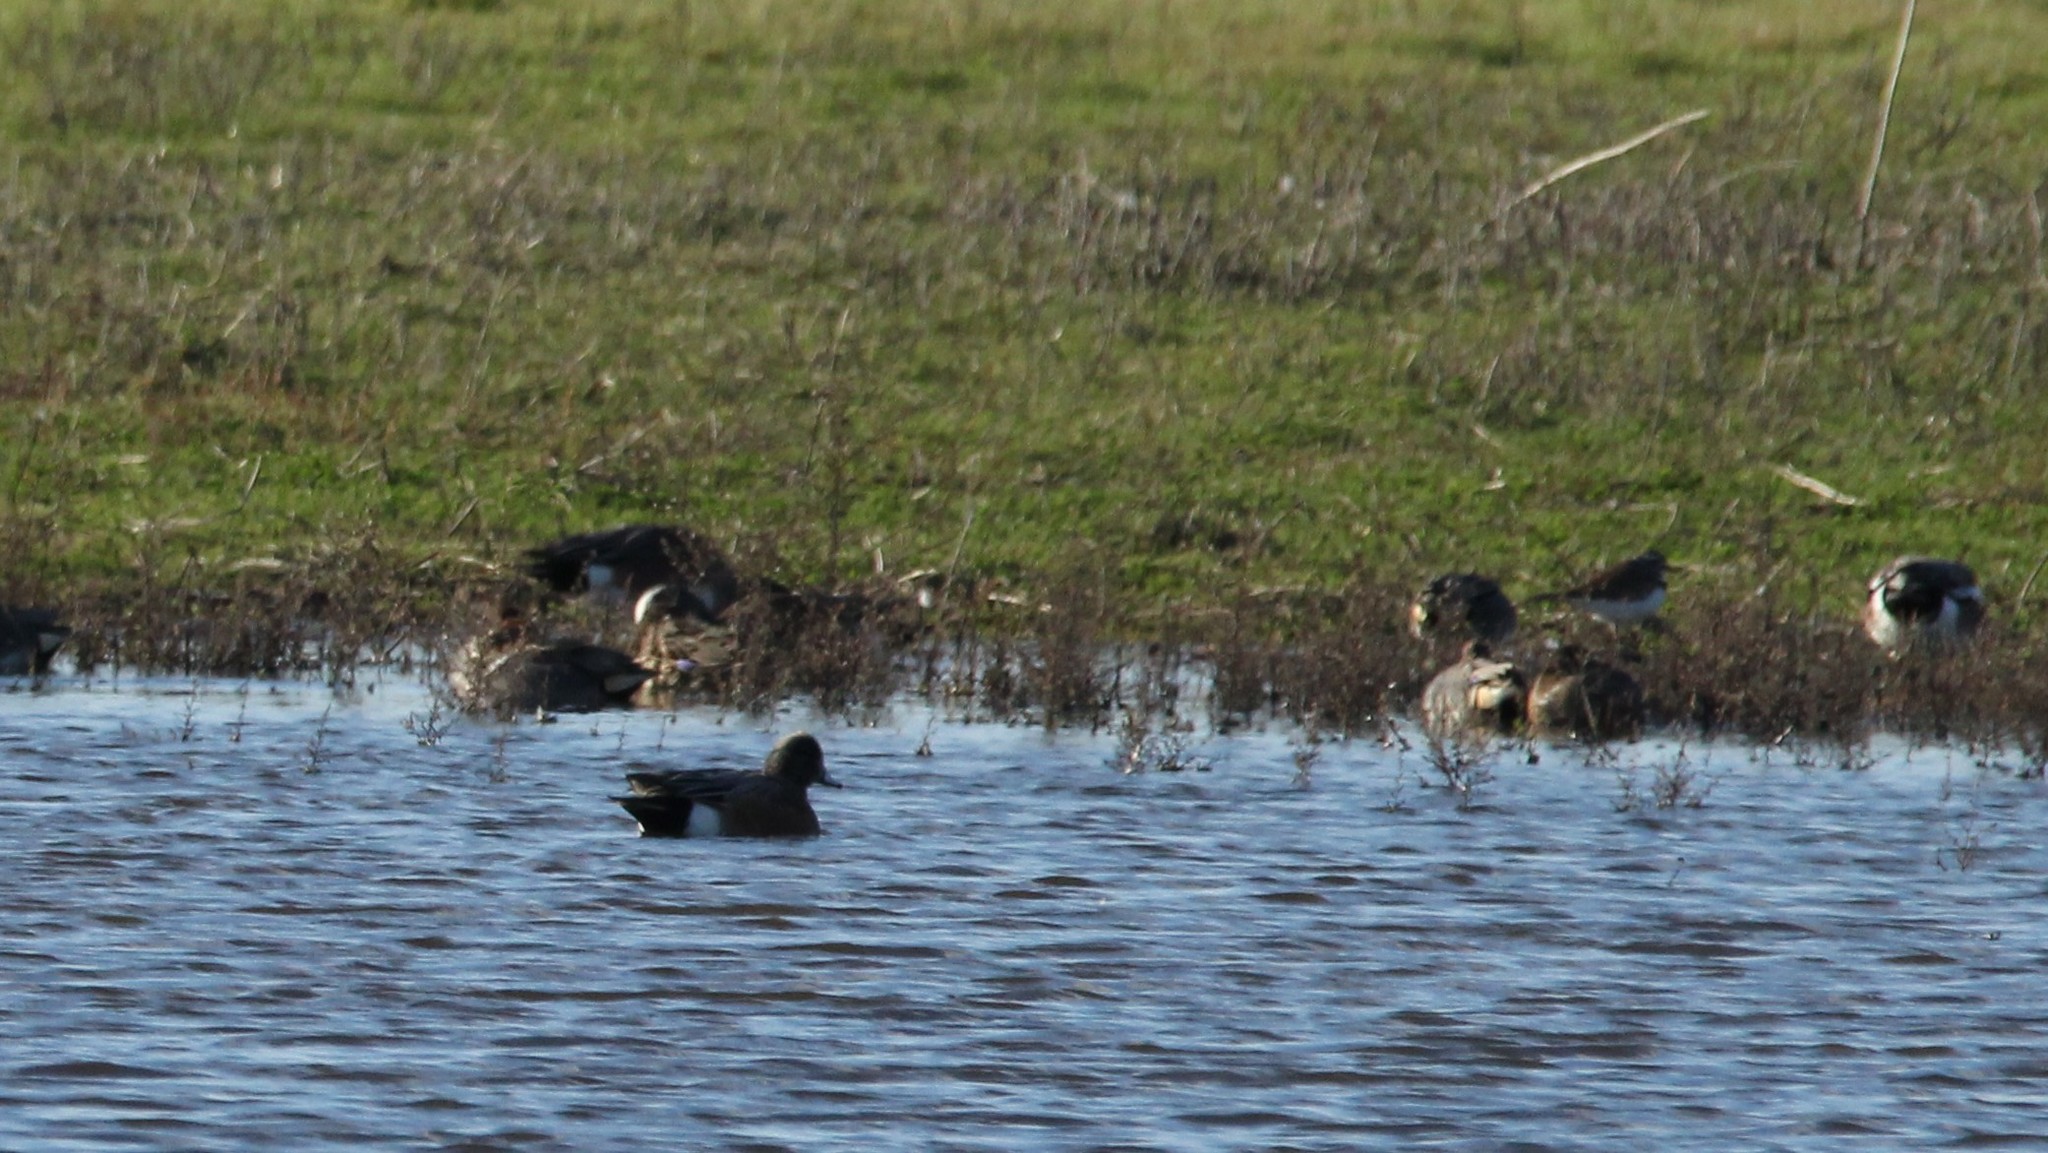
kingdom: Animalia
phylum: Chordata
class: Aves
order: Charadriiformes
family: Charadriidae
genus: Charadrius
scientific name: Charadrius vociferus
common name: Killdeer
